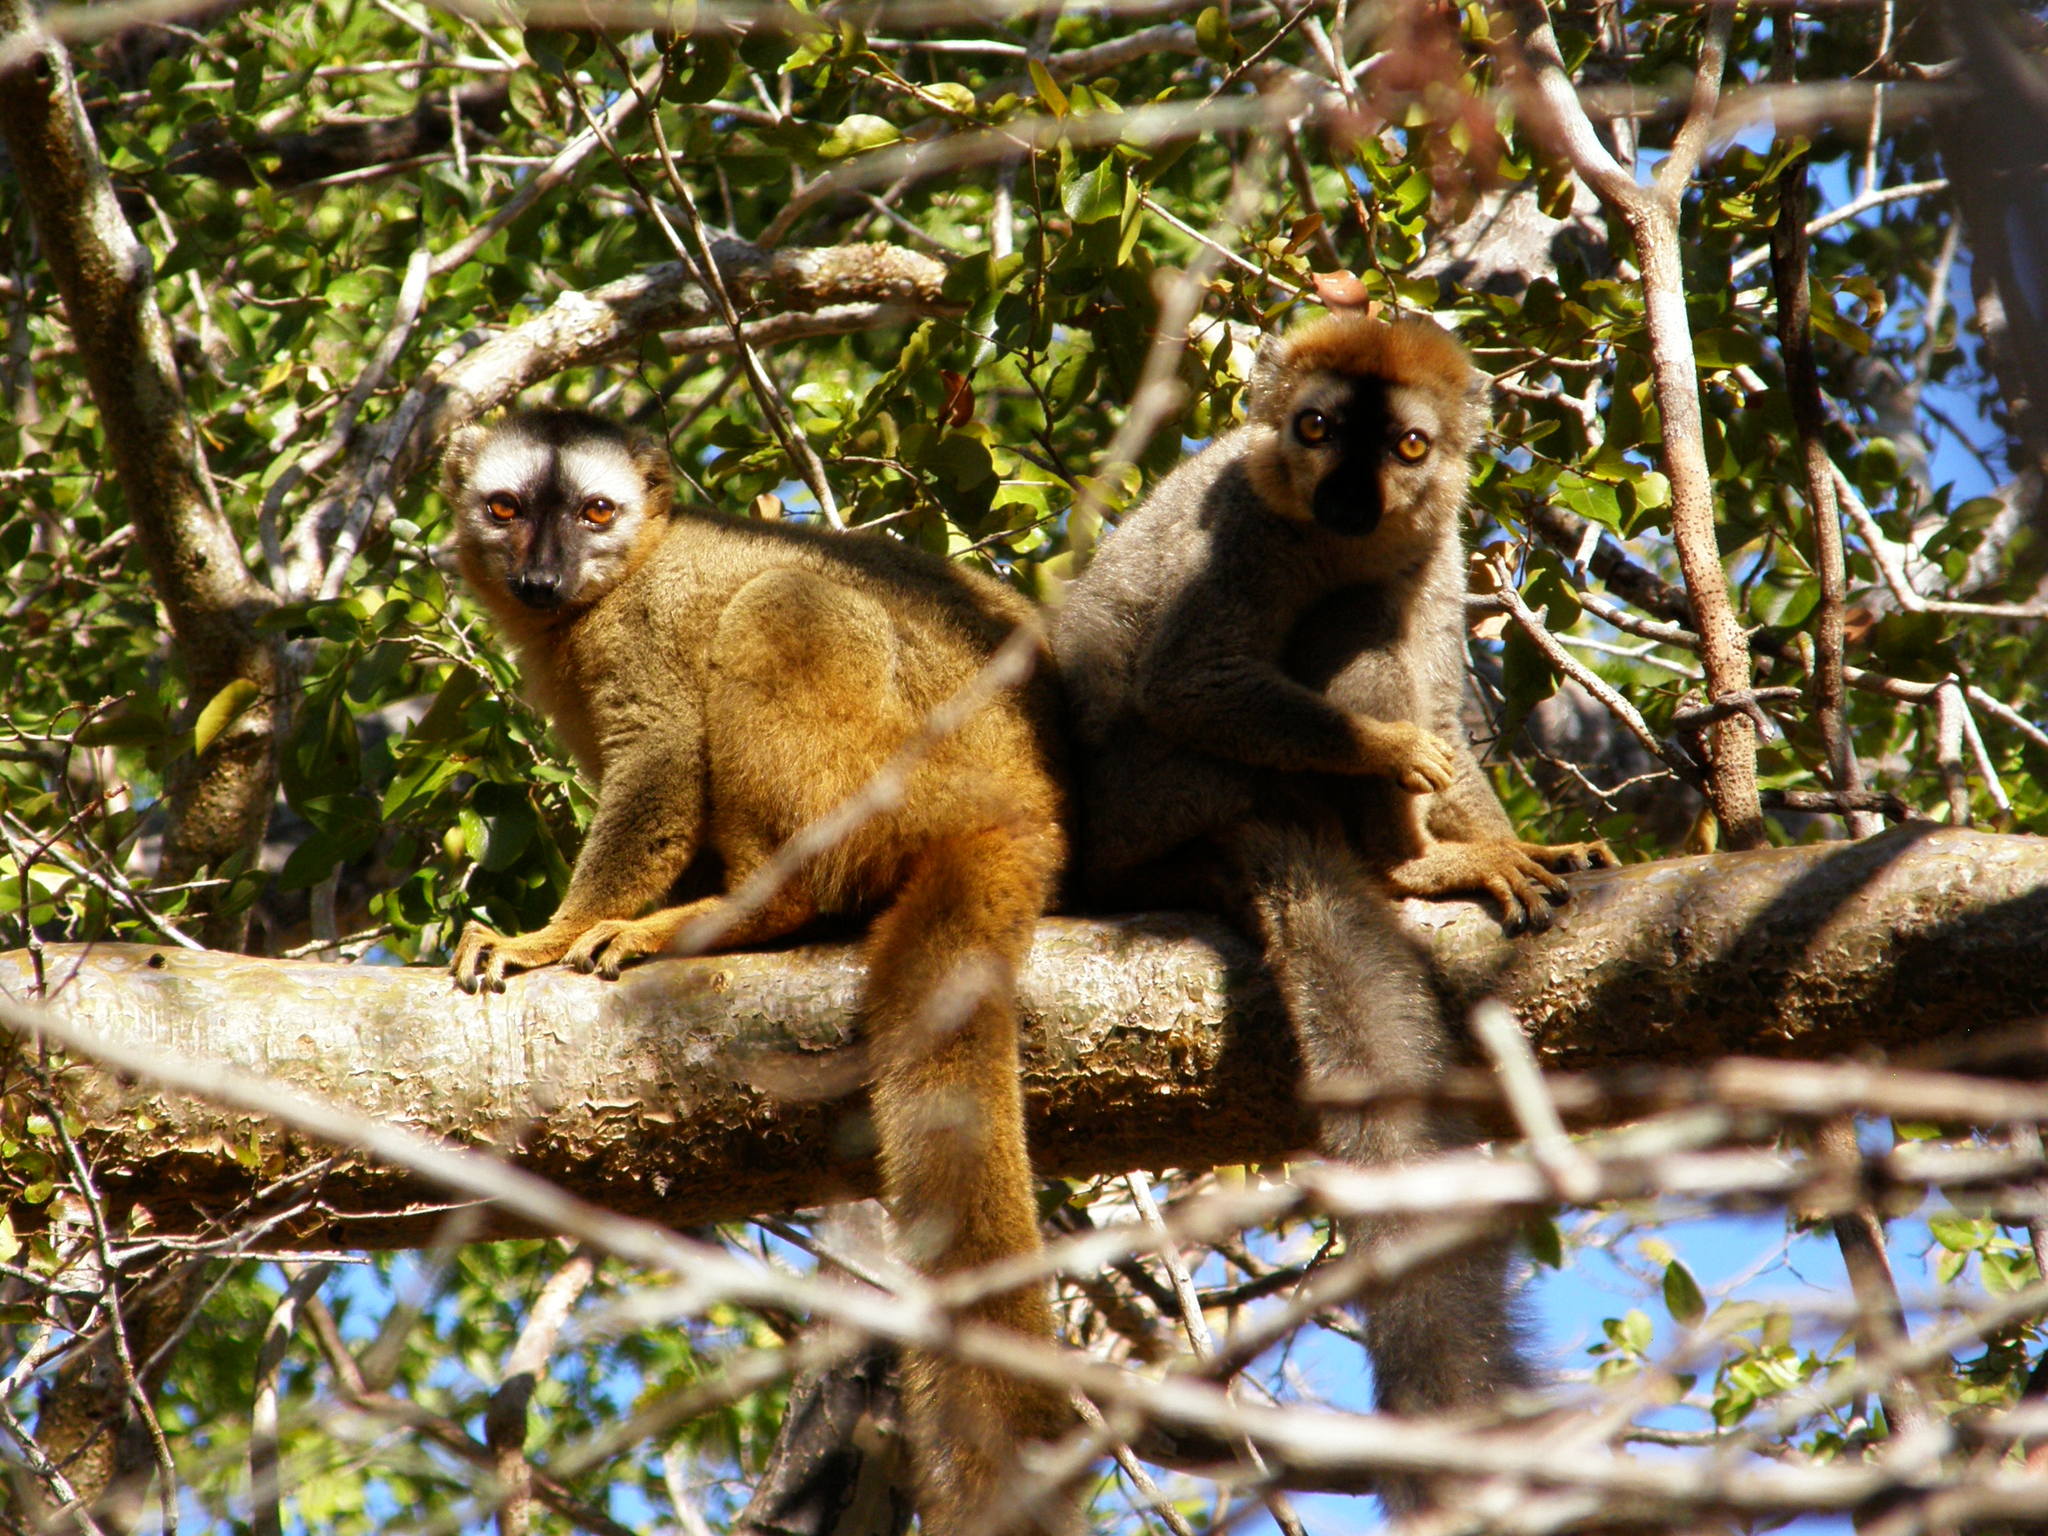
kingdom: Animalia
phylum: Chordata
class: Mammalia
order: Primates
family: Lemuridae
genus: Eulemur
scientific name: Eulemur rufifrons
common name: Red-fronted brown lemur
